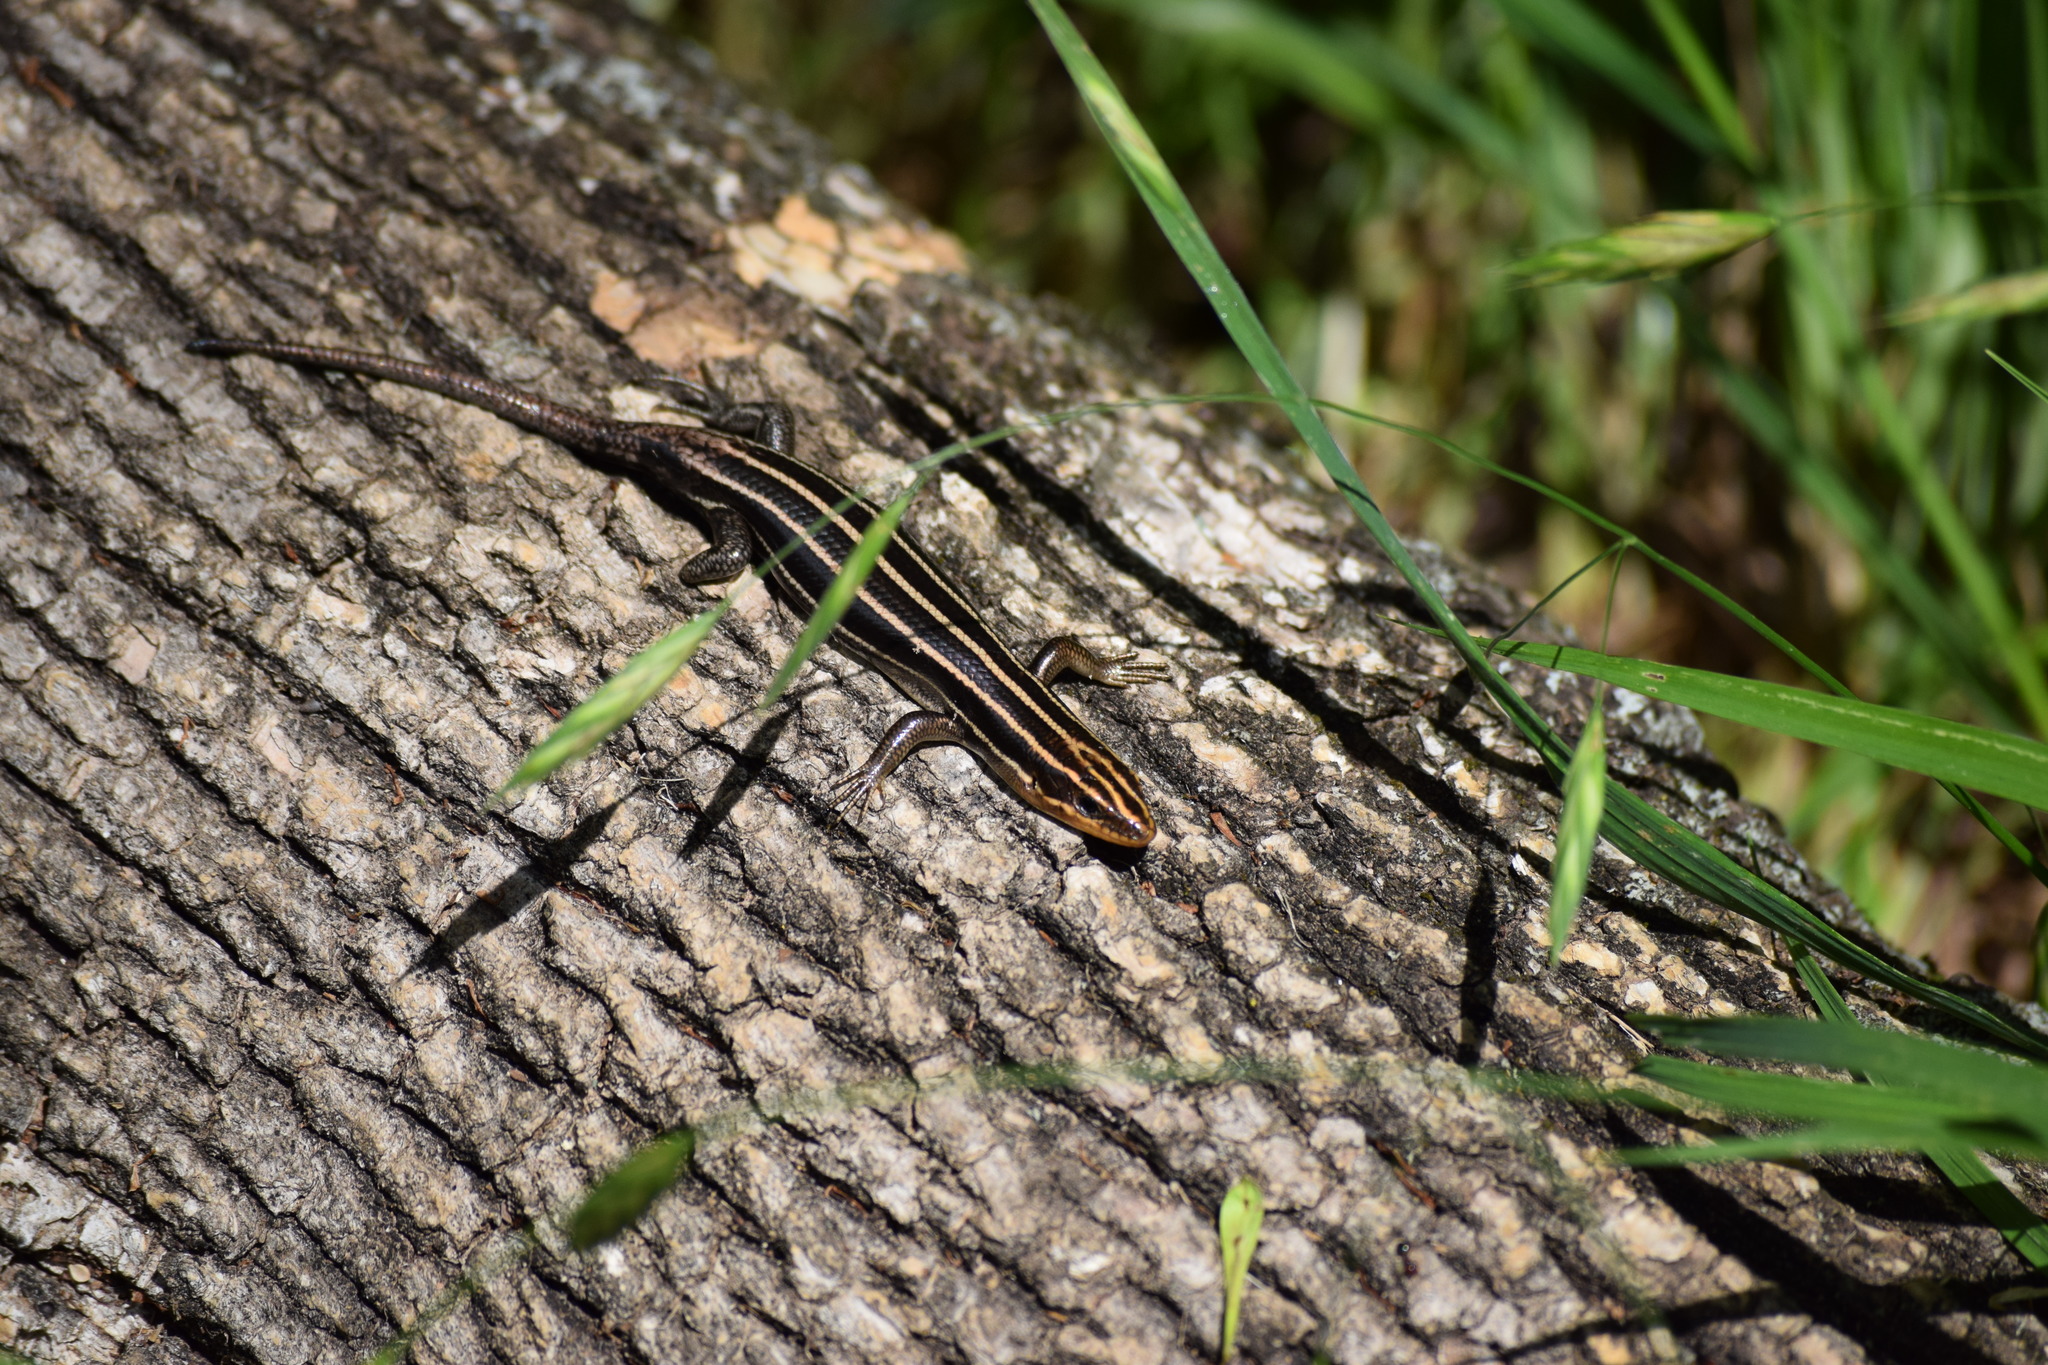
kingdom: Animalia
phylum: Chordata
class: Squamata
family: Scincidae
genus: Plestiodon
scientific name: Plestiodon laticeps
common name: Broadhead skink
